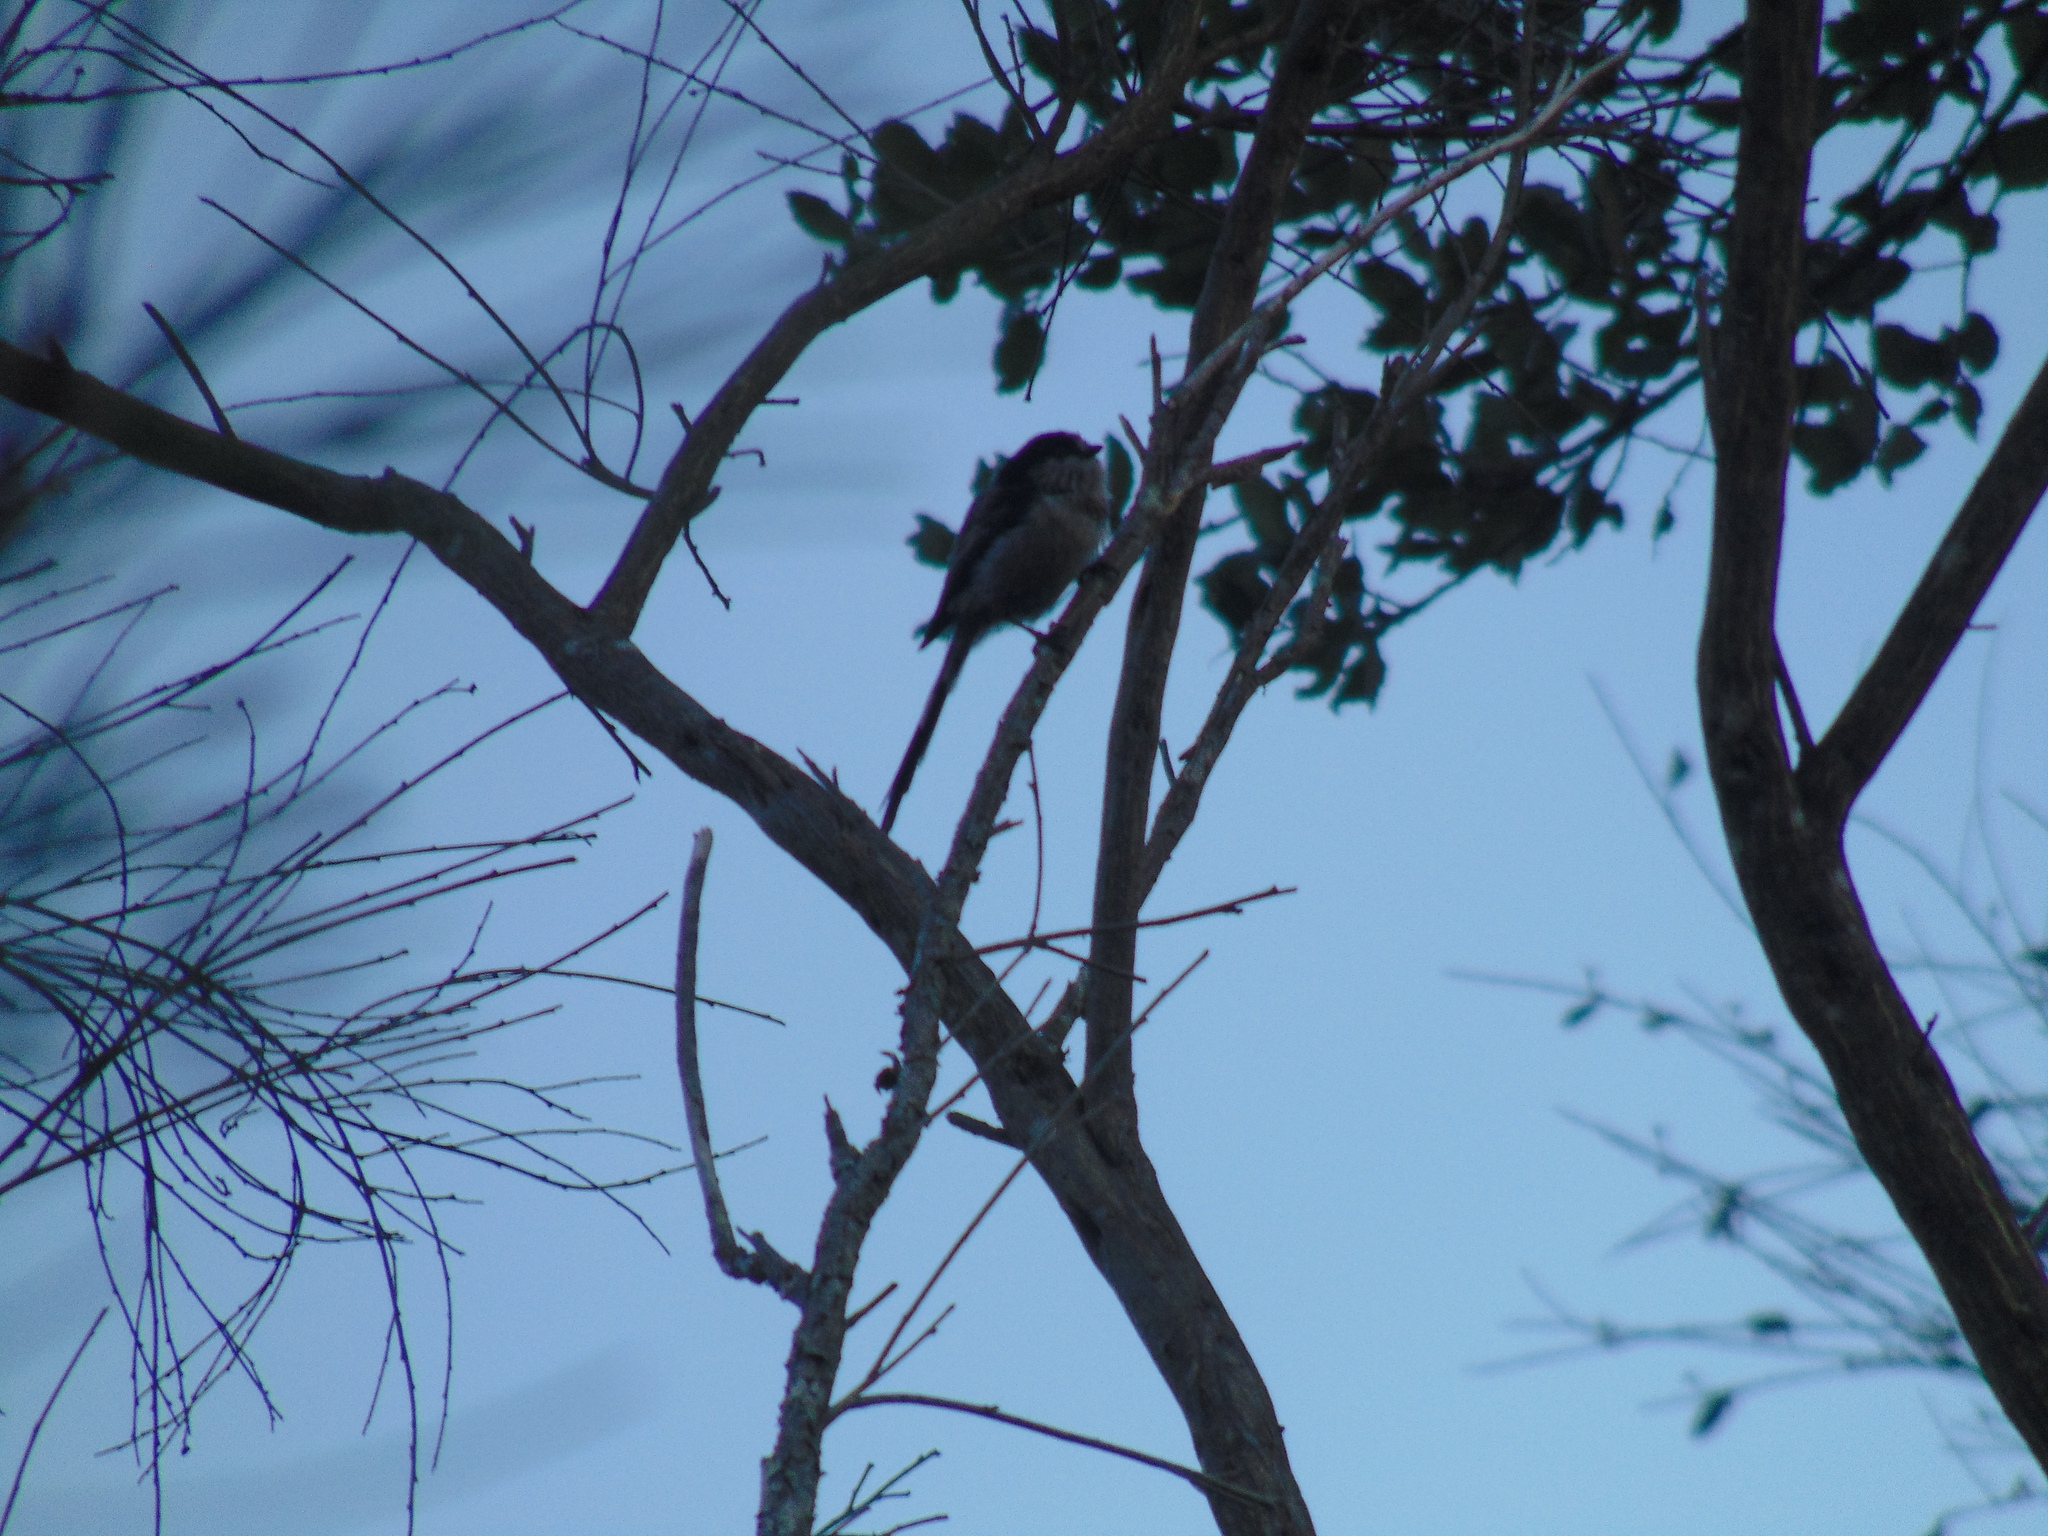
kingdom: Animalia
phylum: Chordata
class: Aves
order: Passeriformes
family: Aegithalidae
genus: Aegithalos
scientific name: Aegithalos caudatus
